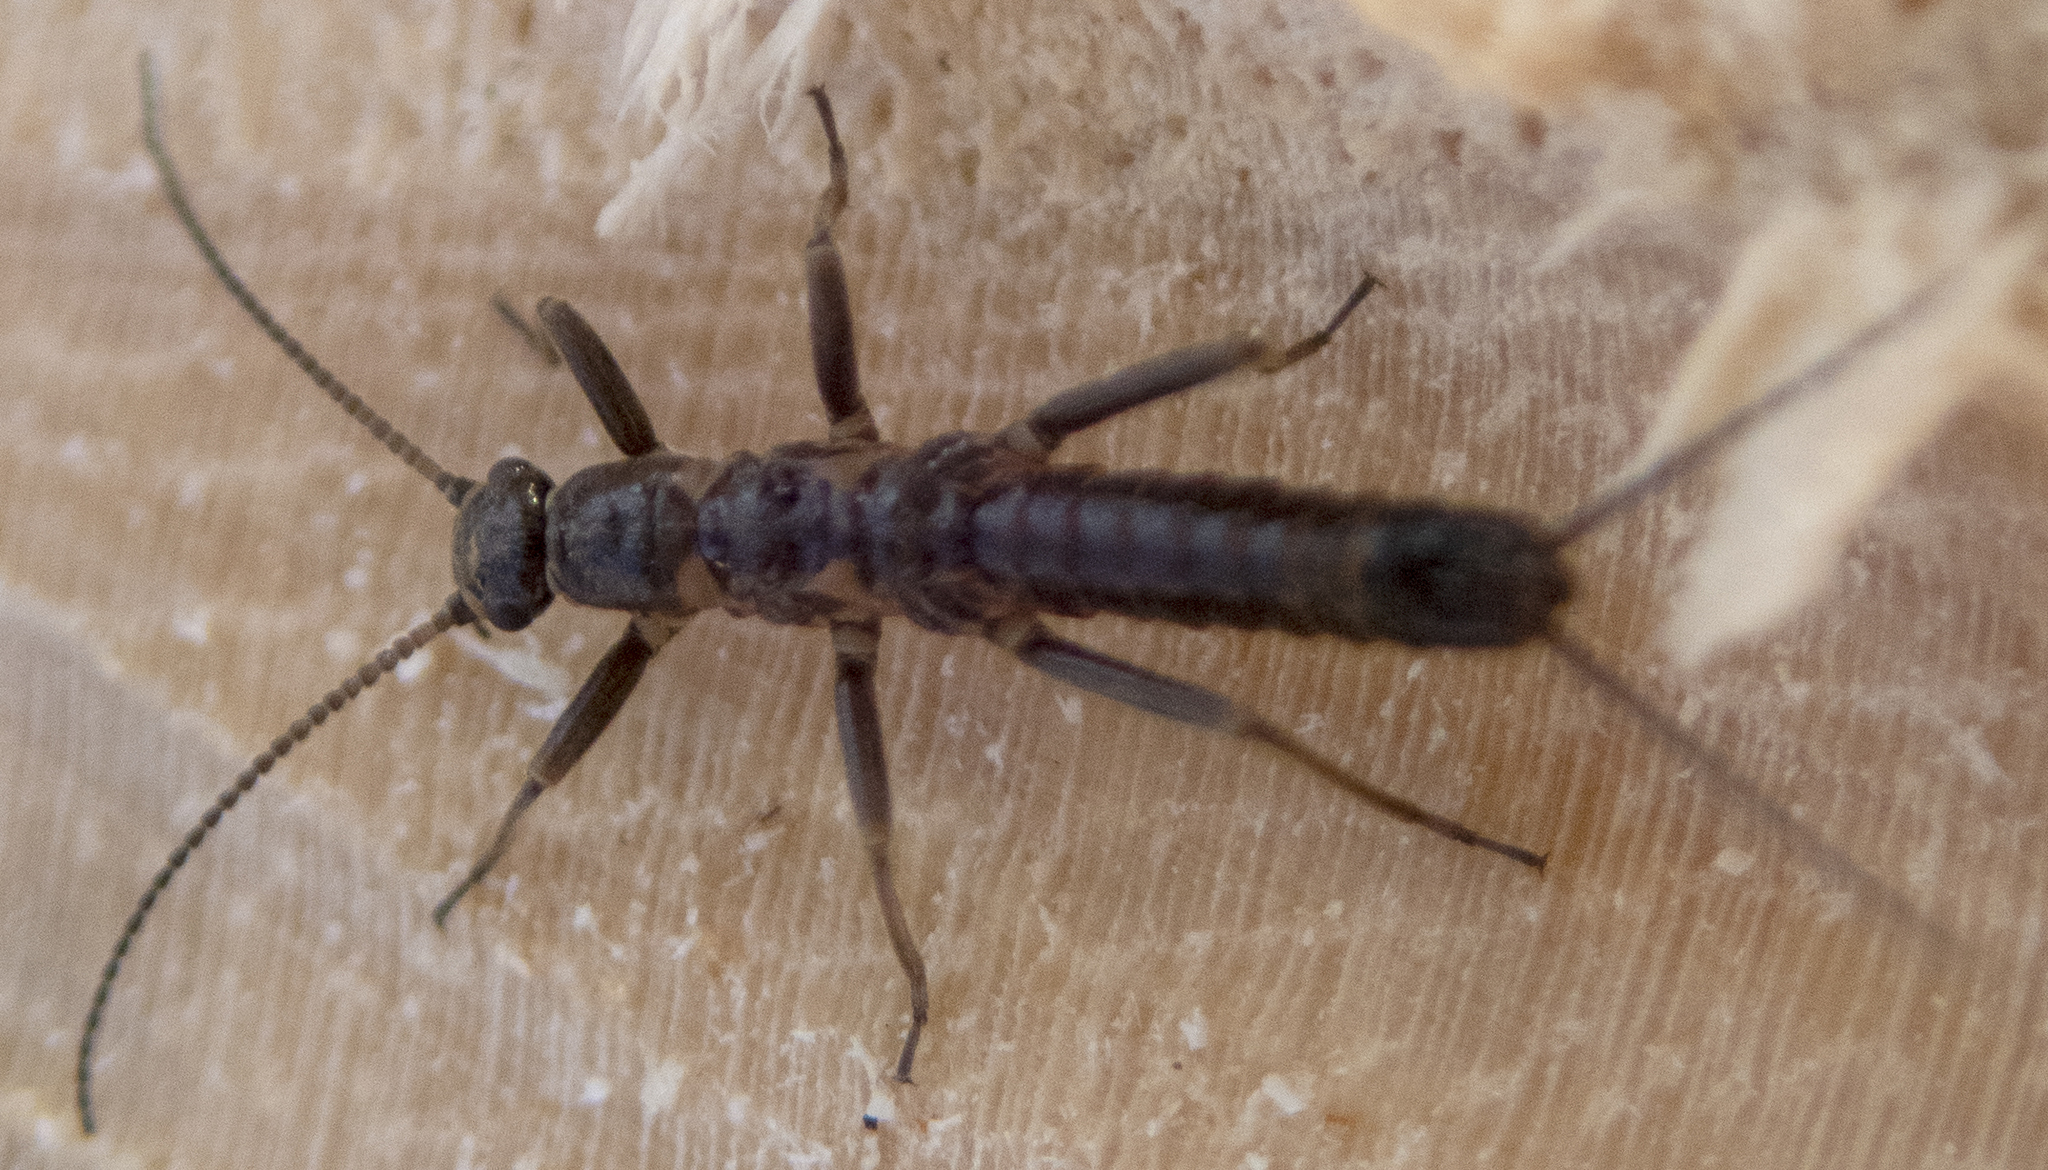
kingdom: Animalia
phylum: Arthropoda
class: Insecta
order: Plecoptera
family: Capniidae
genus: Allocapnia
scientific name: Allocapnia vivipara
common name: Shortwing snowfly
